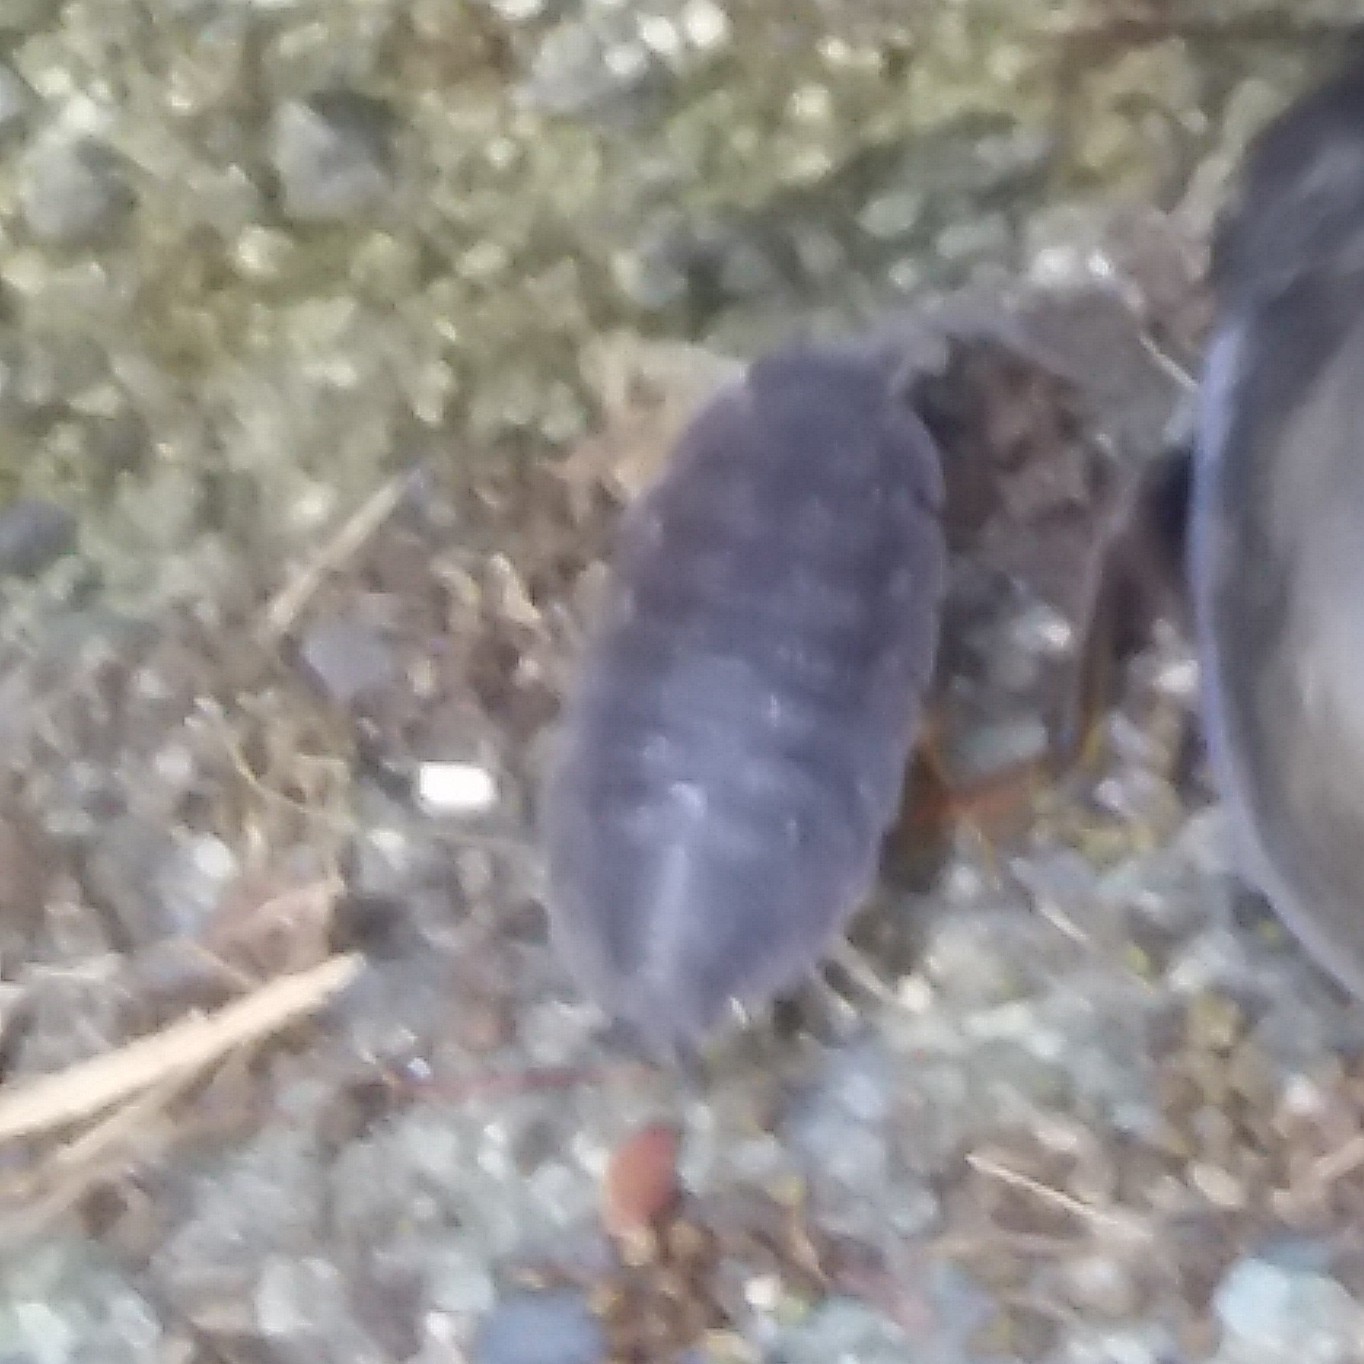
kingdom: Animalia
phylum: Arthropoda
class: Malacostraca
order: Isopoda
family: Porcellionidae
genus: Porcellio
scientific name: Porcellio scaber
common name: Common rough woodlouse
